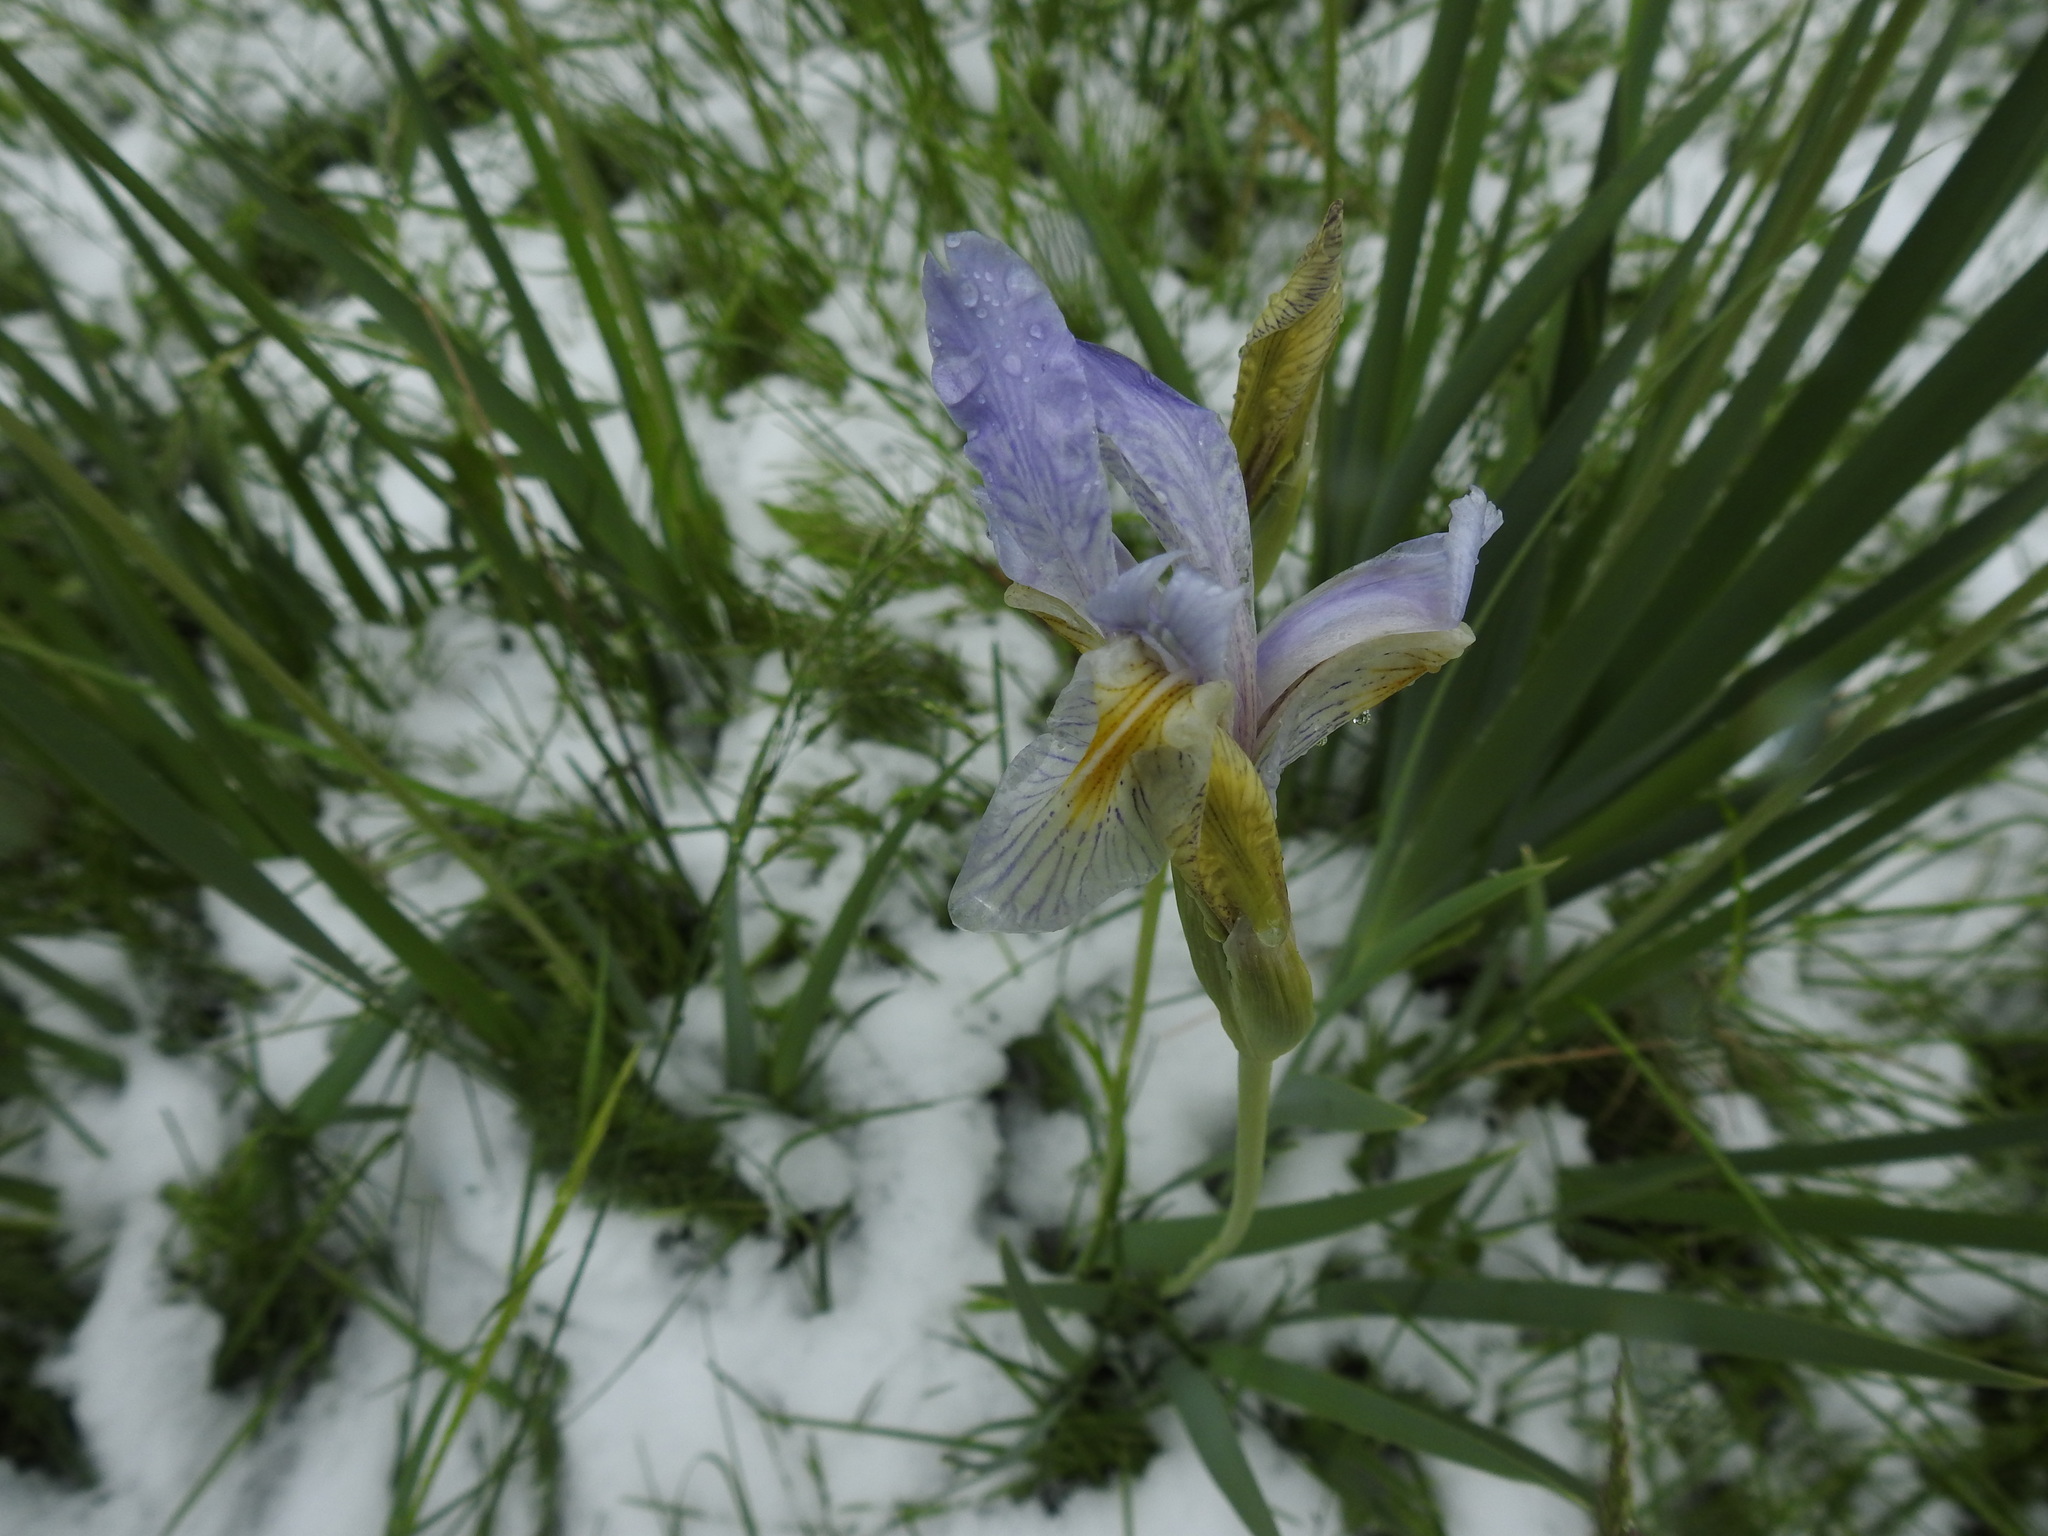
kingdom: Plantae
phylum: Tracheophyta
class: Liliopsida
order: Asparagales
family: Iridaceae
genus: Iris
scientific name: Iris missouriensis
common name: Rocky mountain iris
